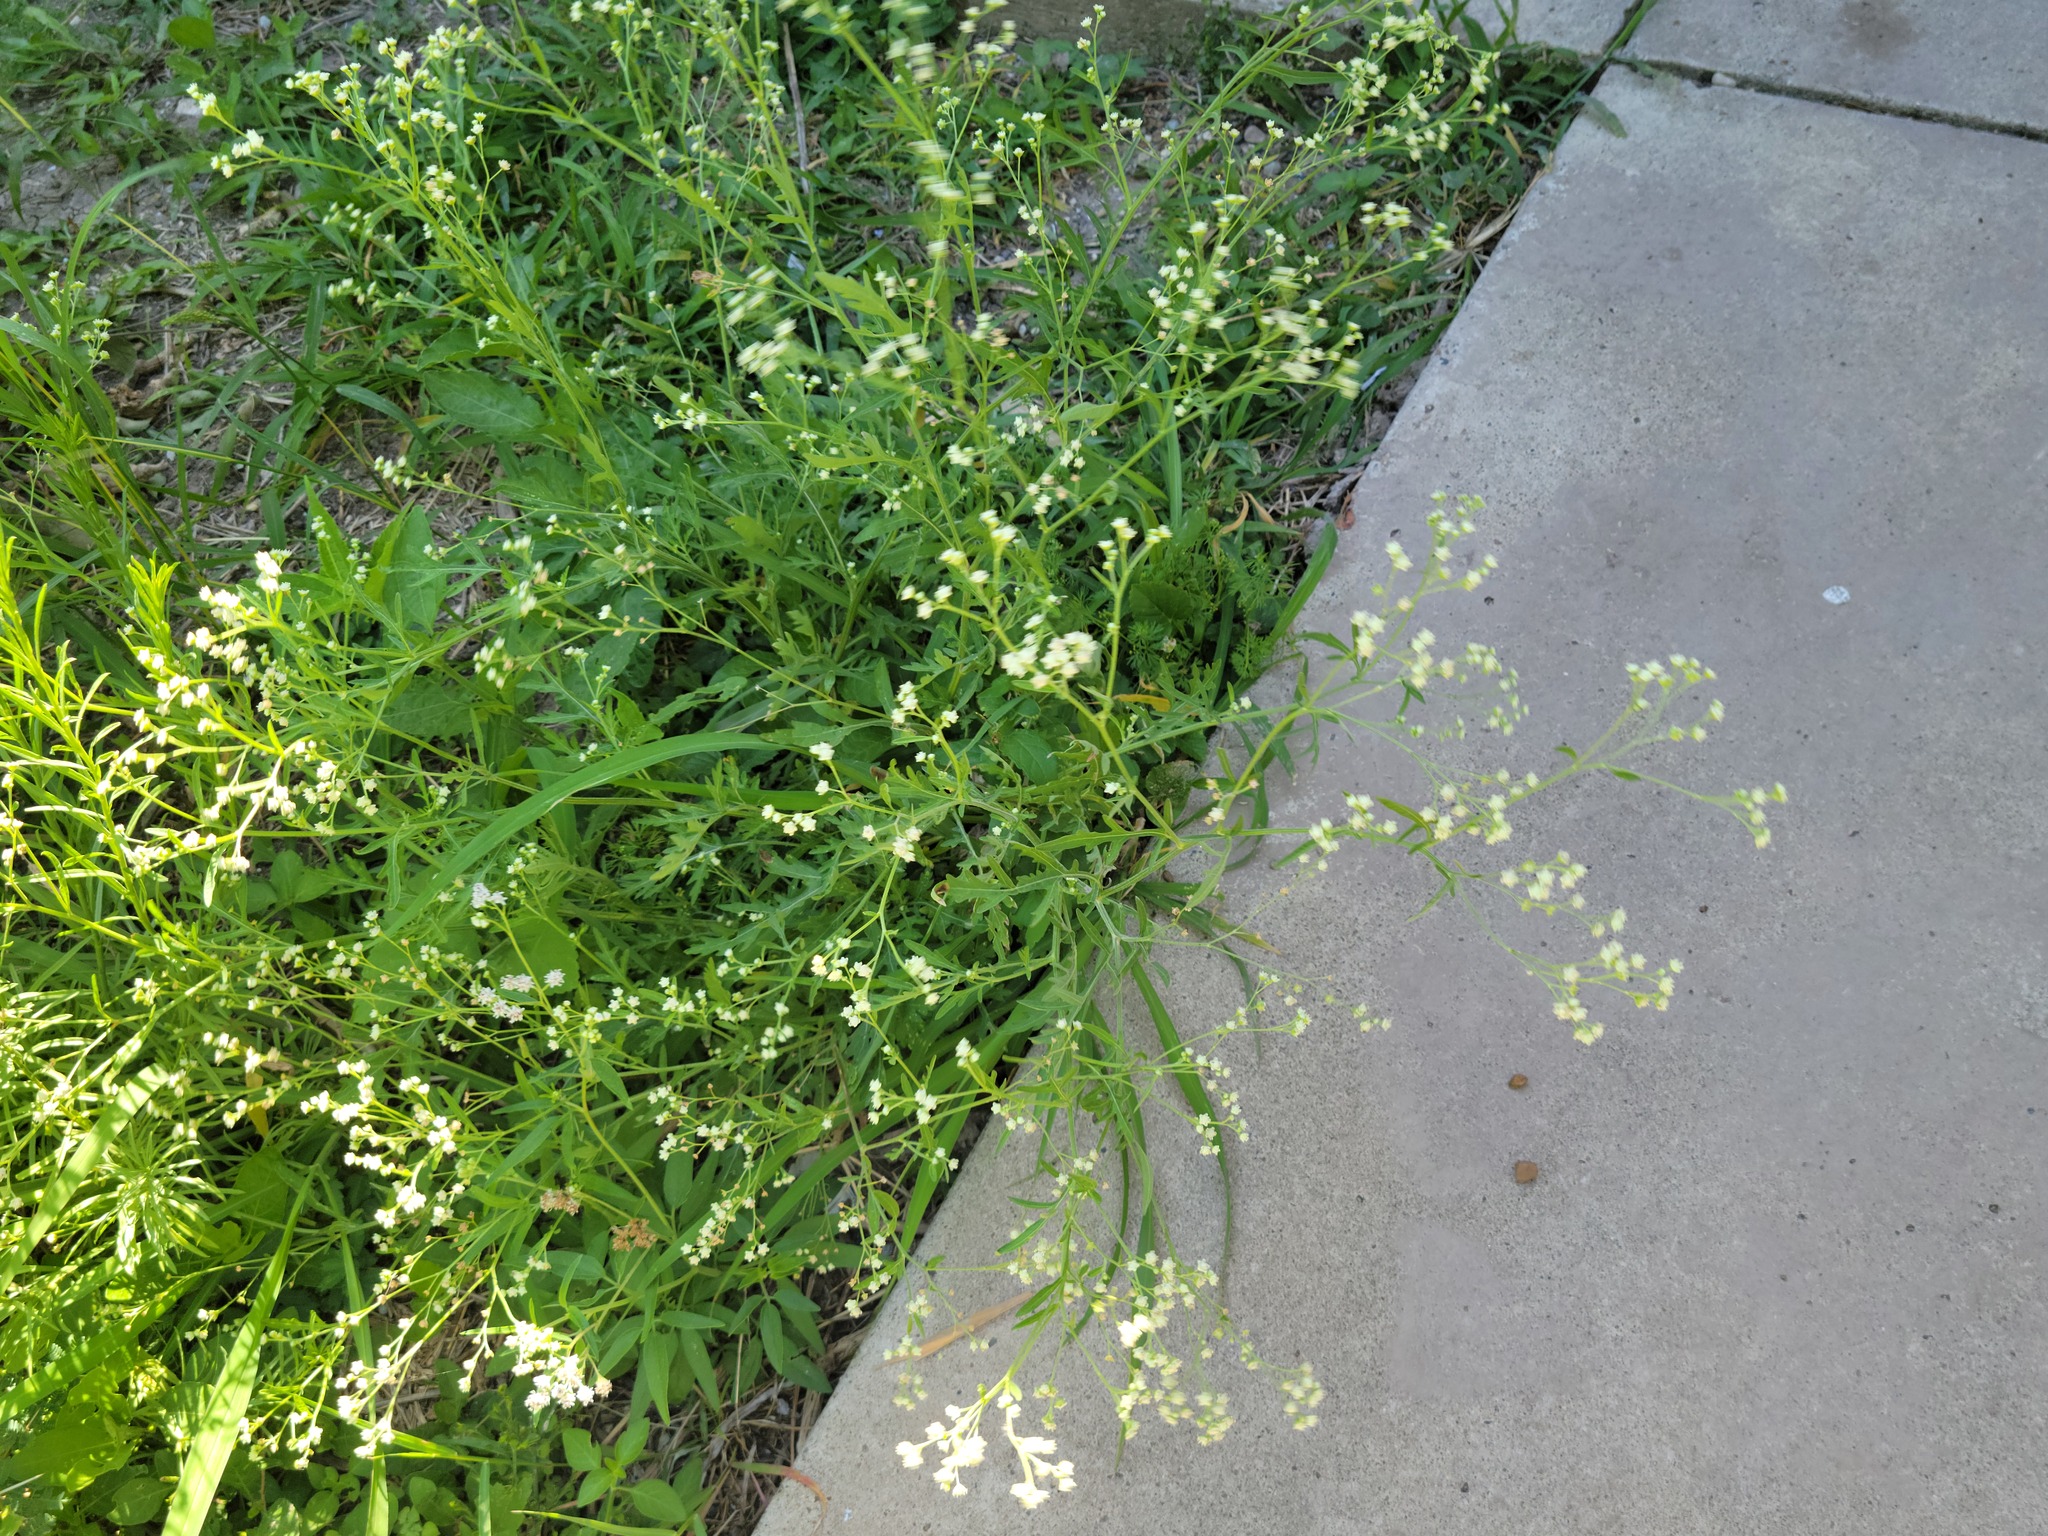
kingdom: Plantae
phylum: Tracheophyta
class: Magnoliopsida
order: Asterales
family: Asteraceae
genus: Parthenium
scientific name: Parthenium hysterophorus
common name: Santa maria feverfew
